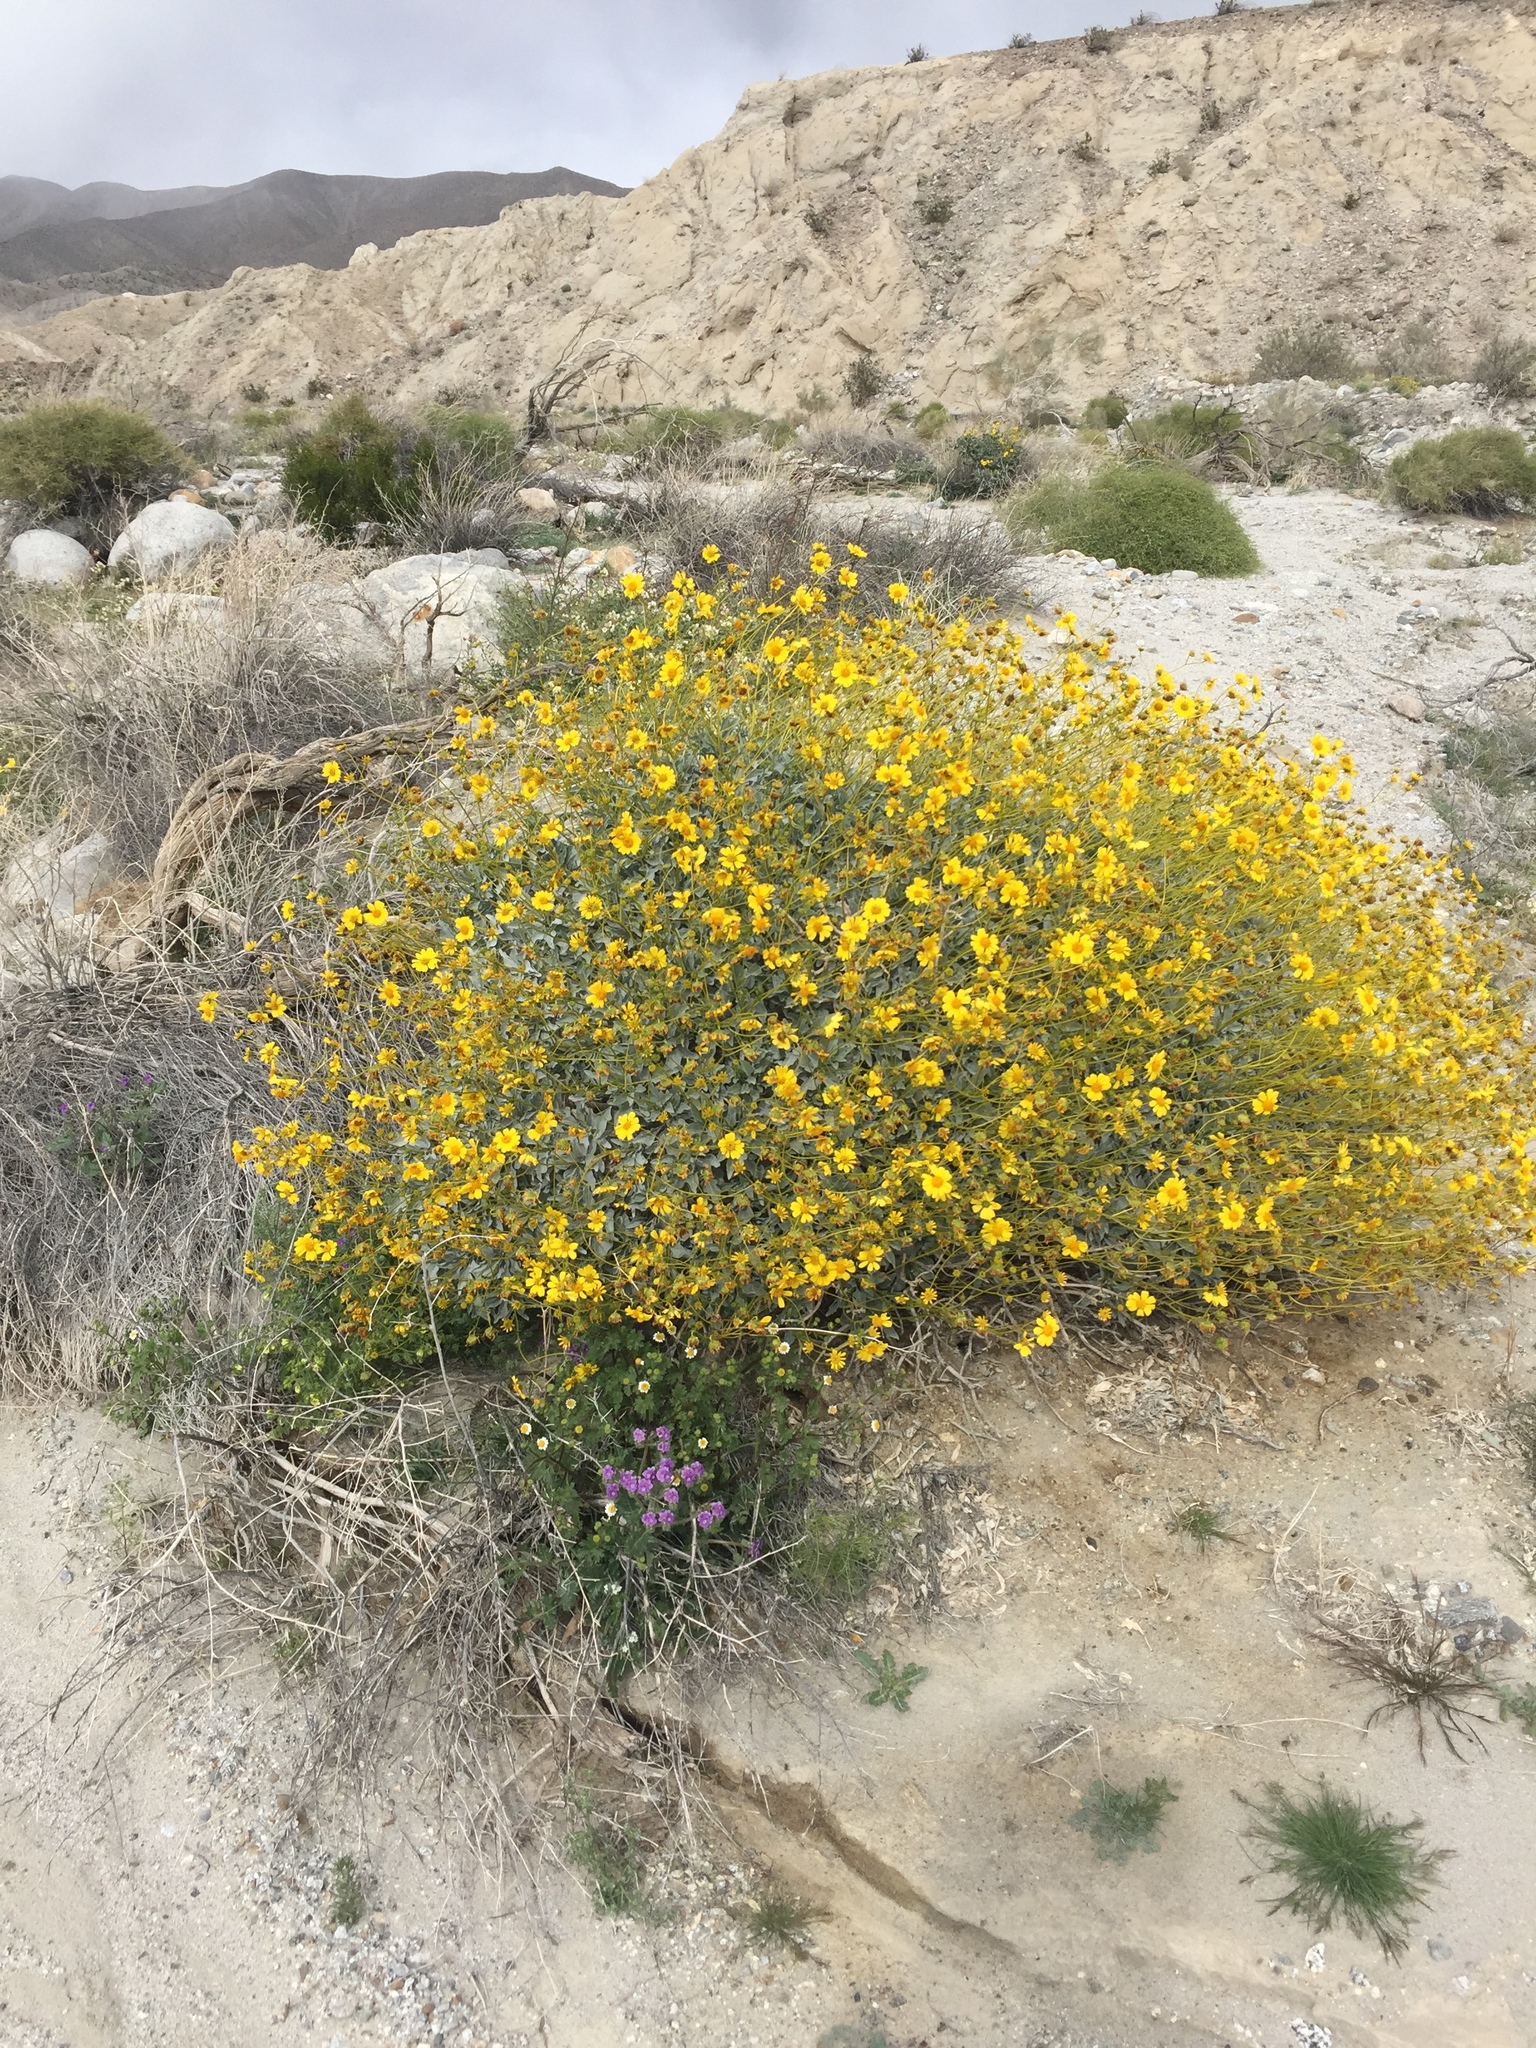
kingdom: Plantae
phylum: Tracheophyta
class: Magnoliopsida
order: Asterales
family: Asteraceae
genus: Encelia
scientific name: Encelia farinosa
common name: Brittlebush
